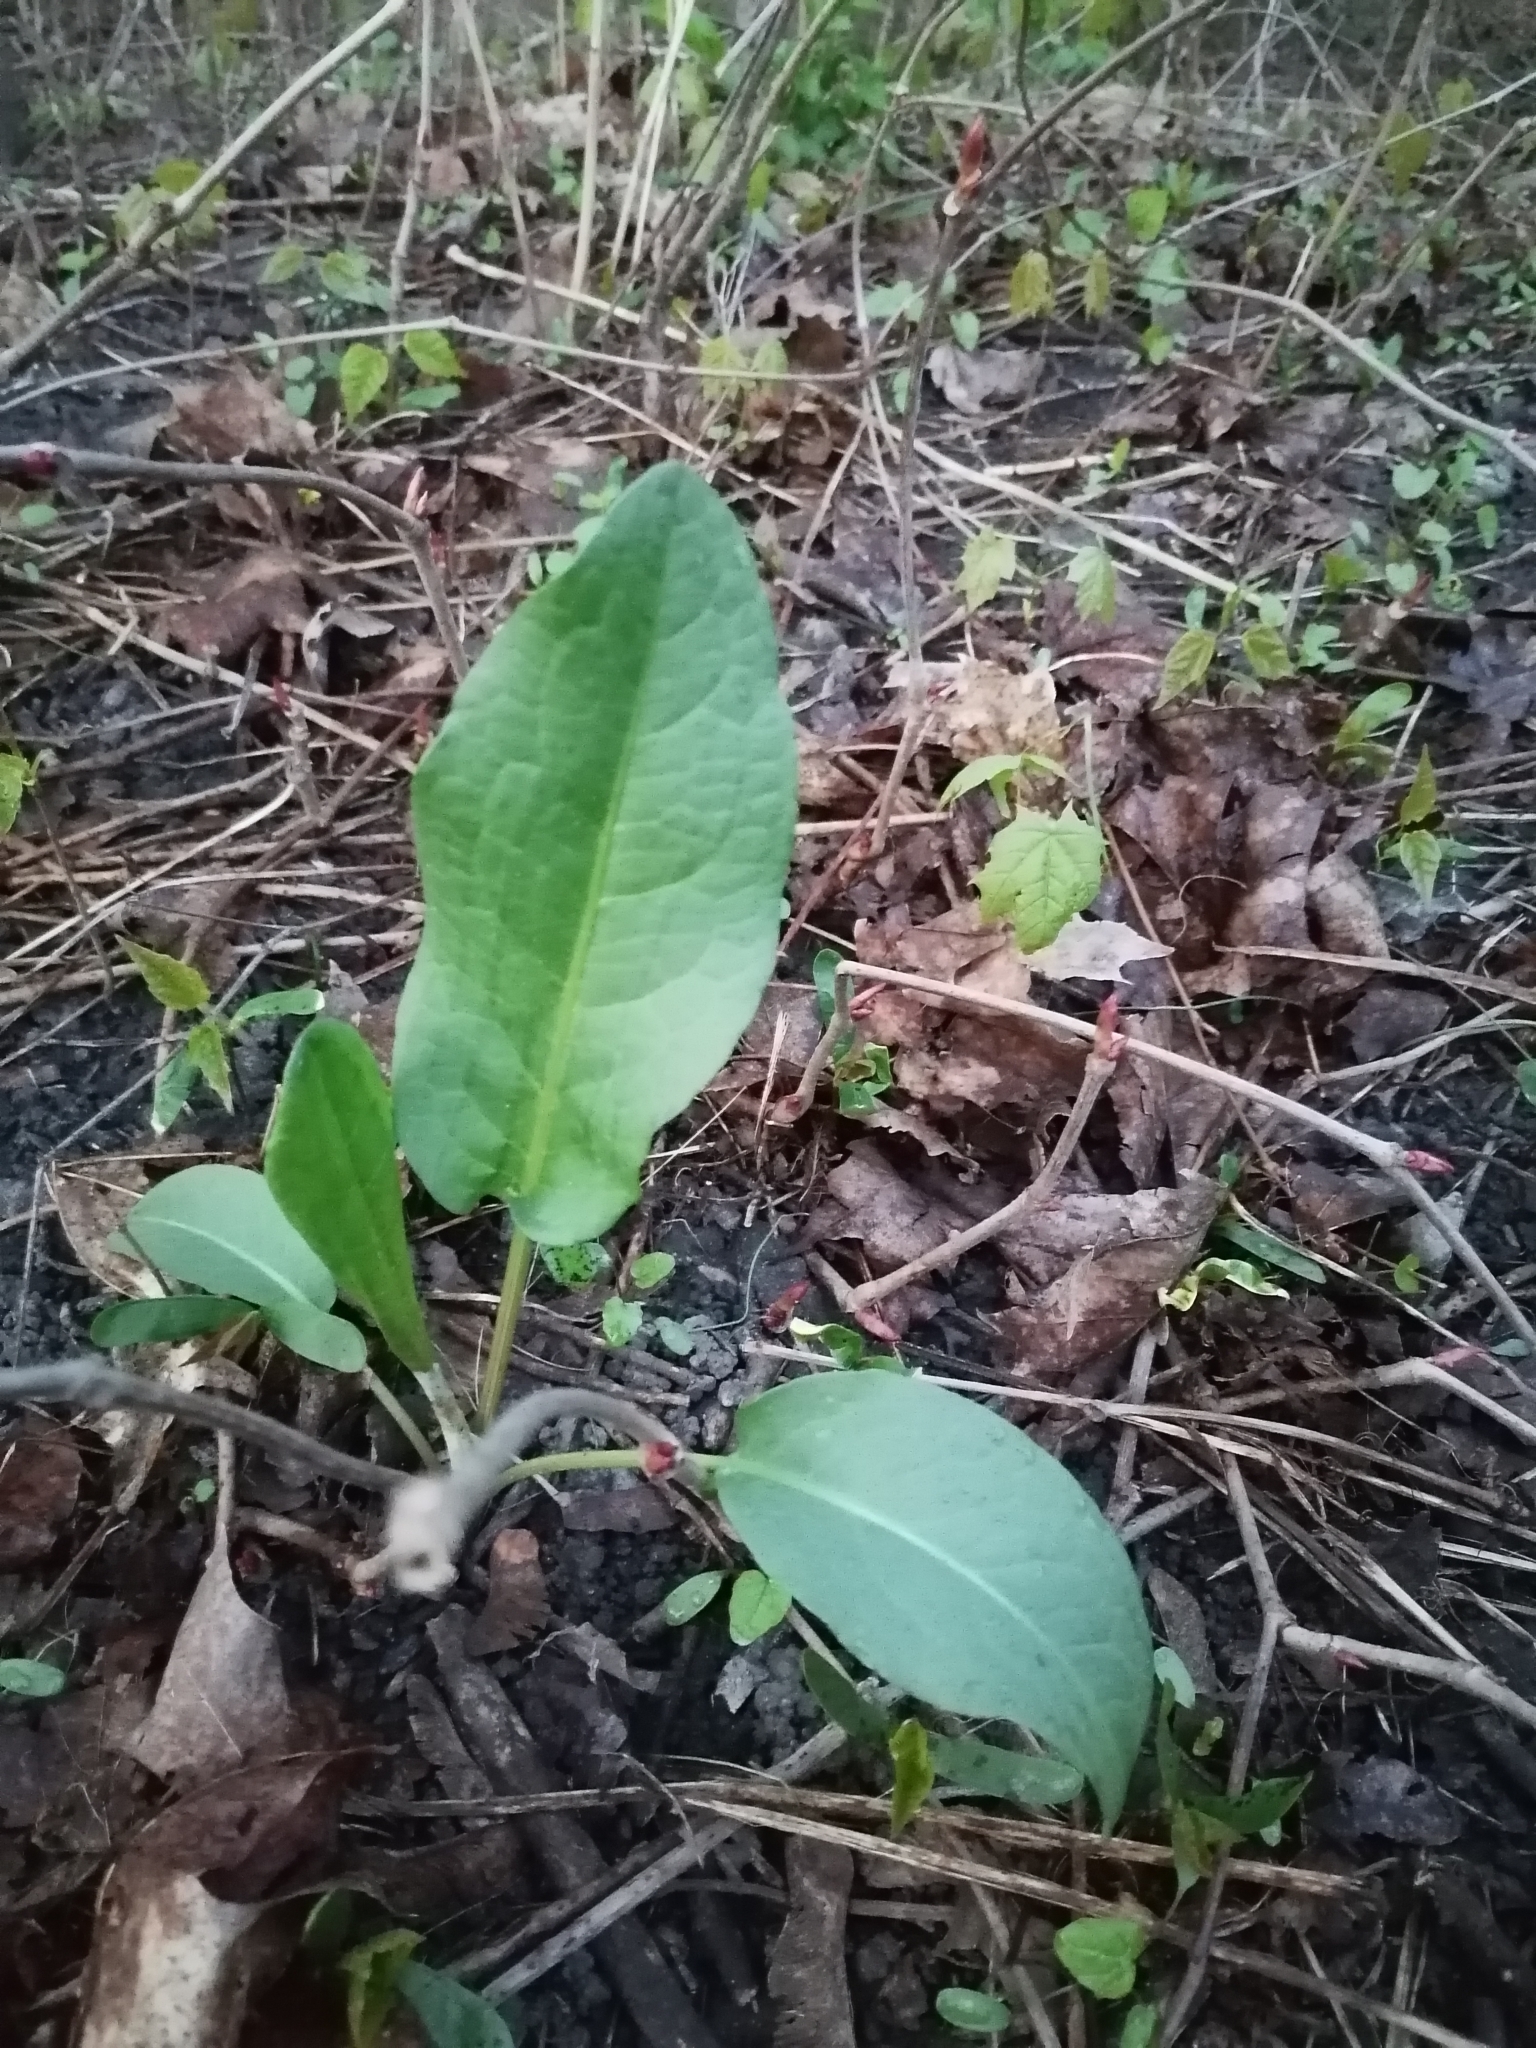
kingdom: Plantae
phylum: Tracheophyta
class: Magnoliopsida
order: Caryophyllales
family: Polygonaceae
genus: Rumex
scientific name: Rumex obtusifolius
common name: Bitter dock
